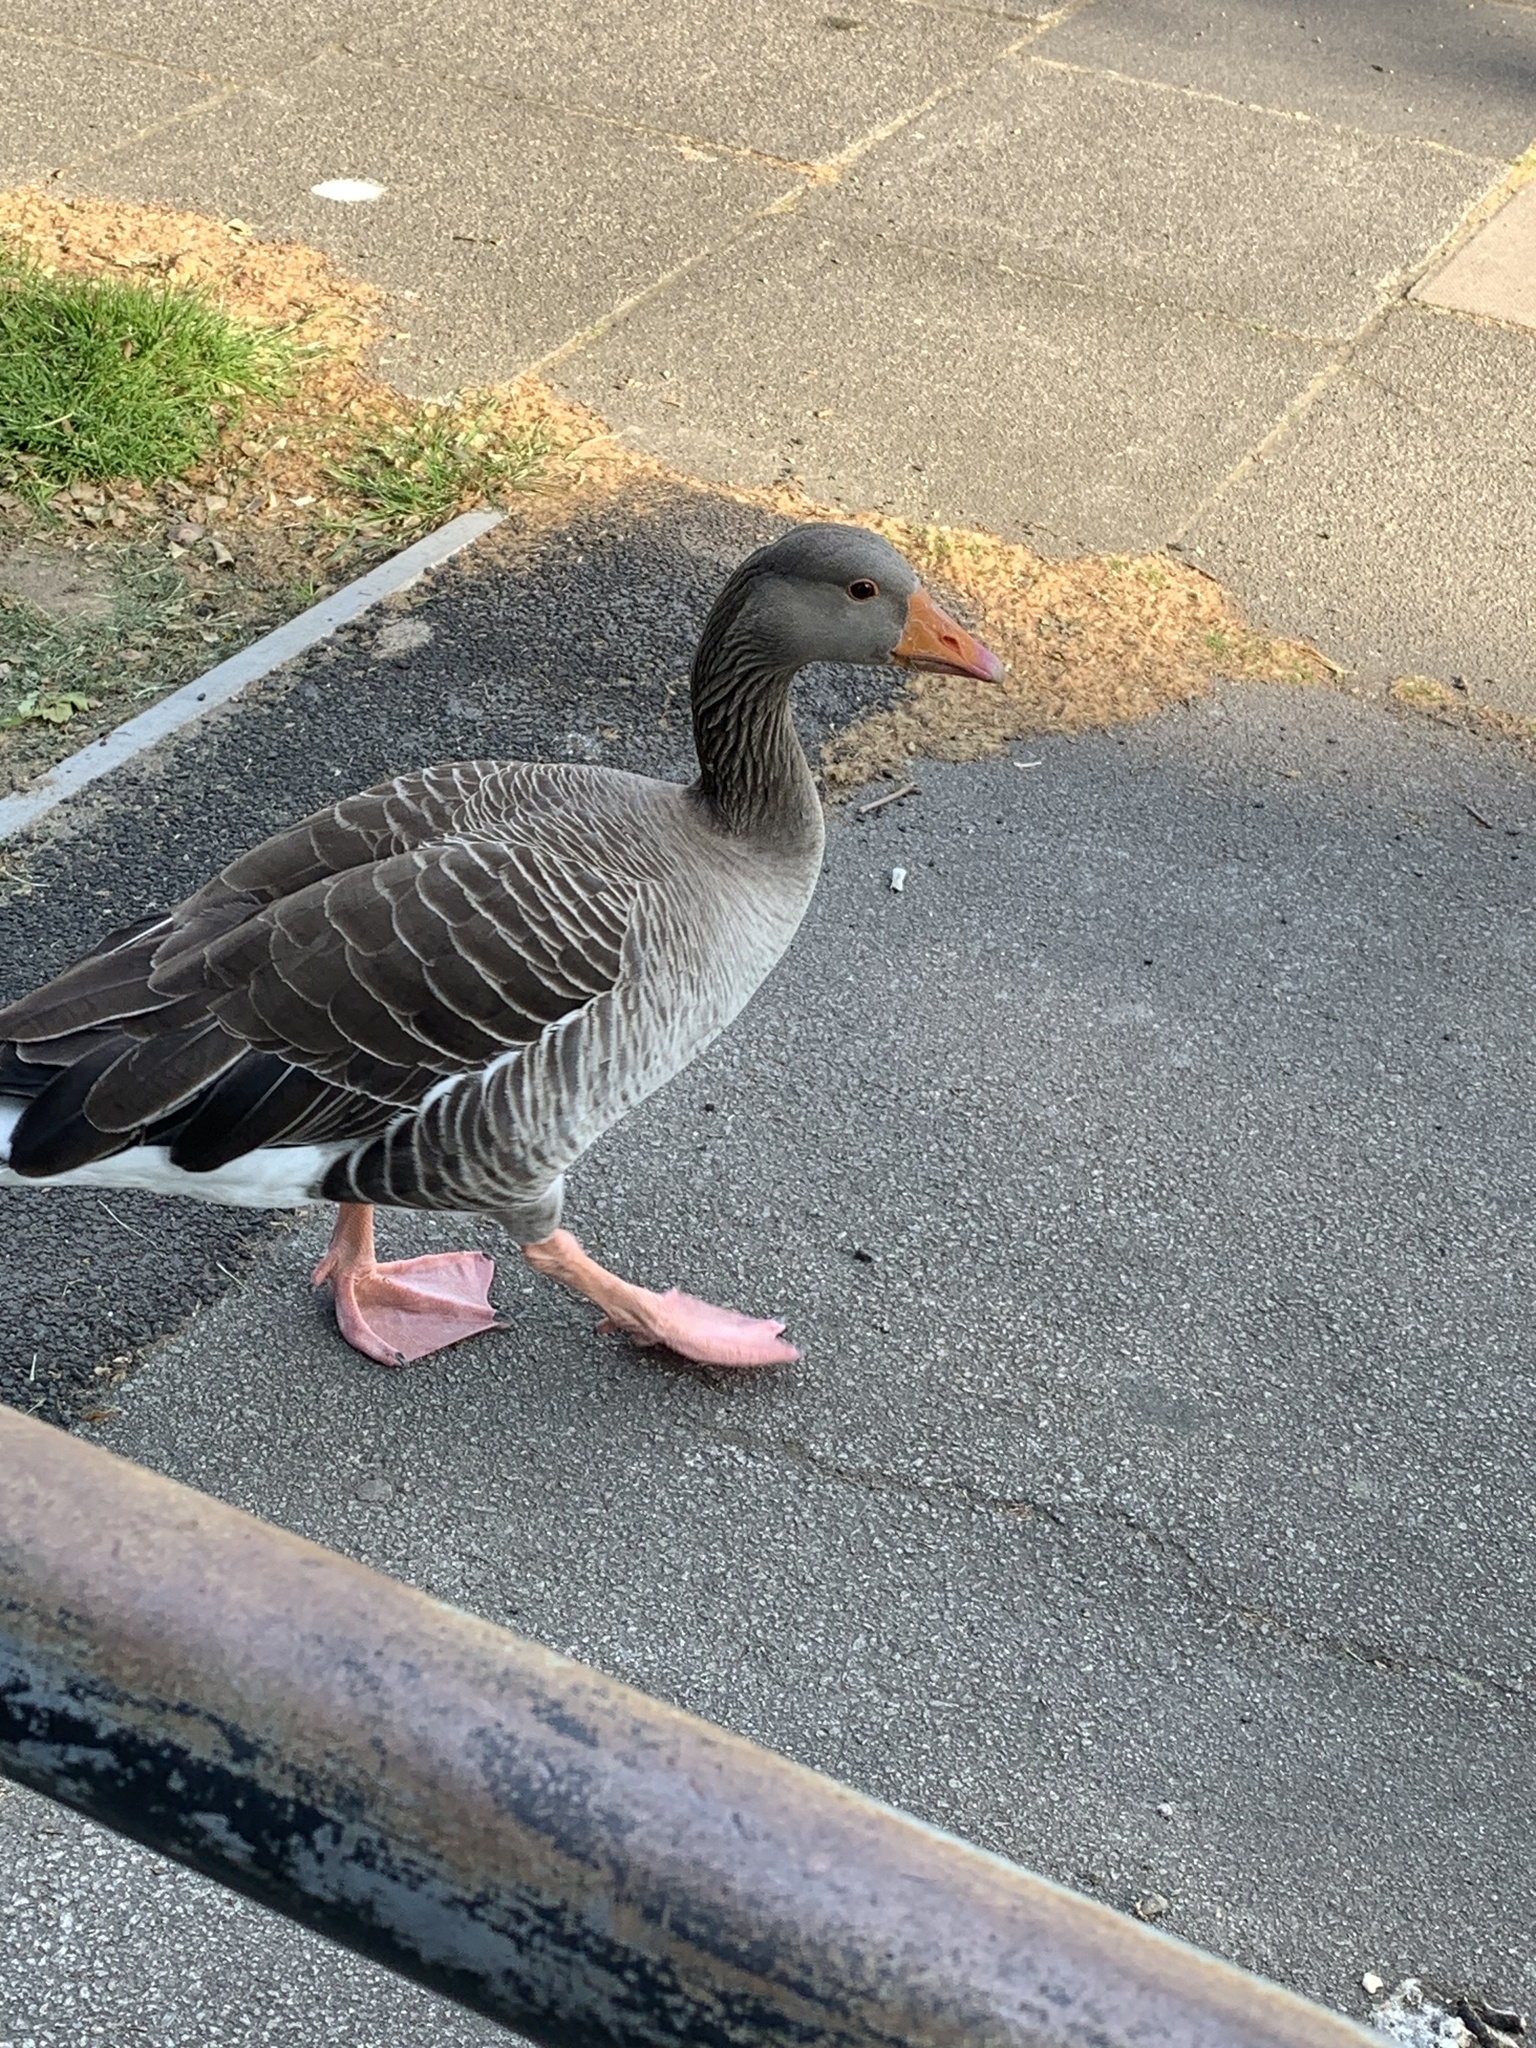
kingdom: Animalia
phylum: Chordata
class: Aves
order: Anseriformes
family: Anatidae
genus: Anser
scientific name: Anser anser
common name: Greylag goose
